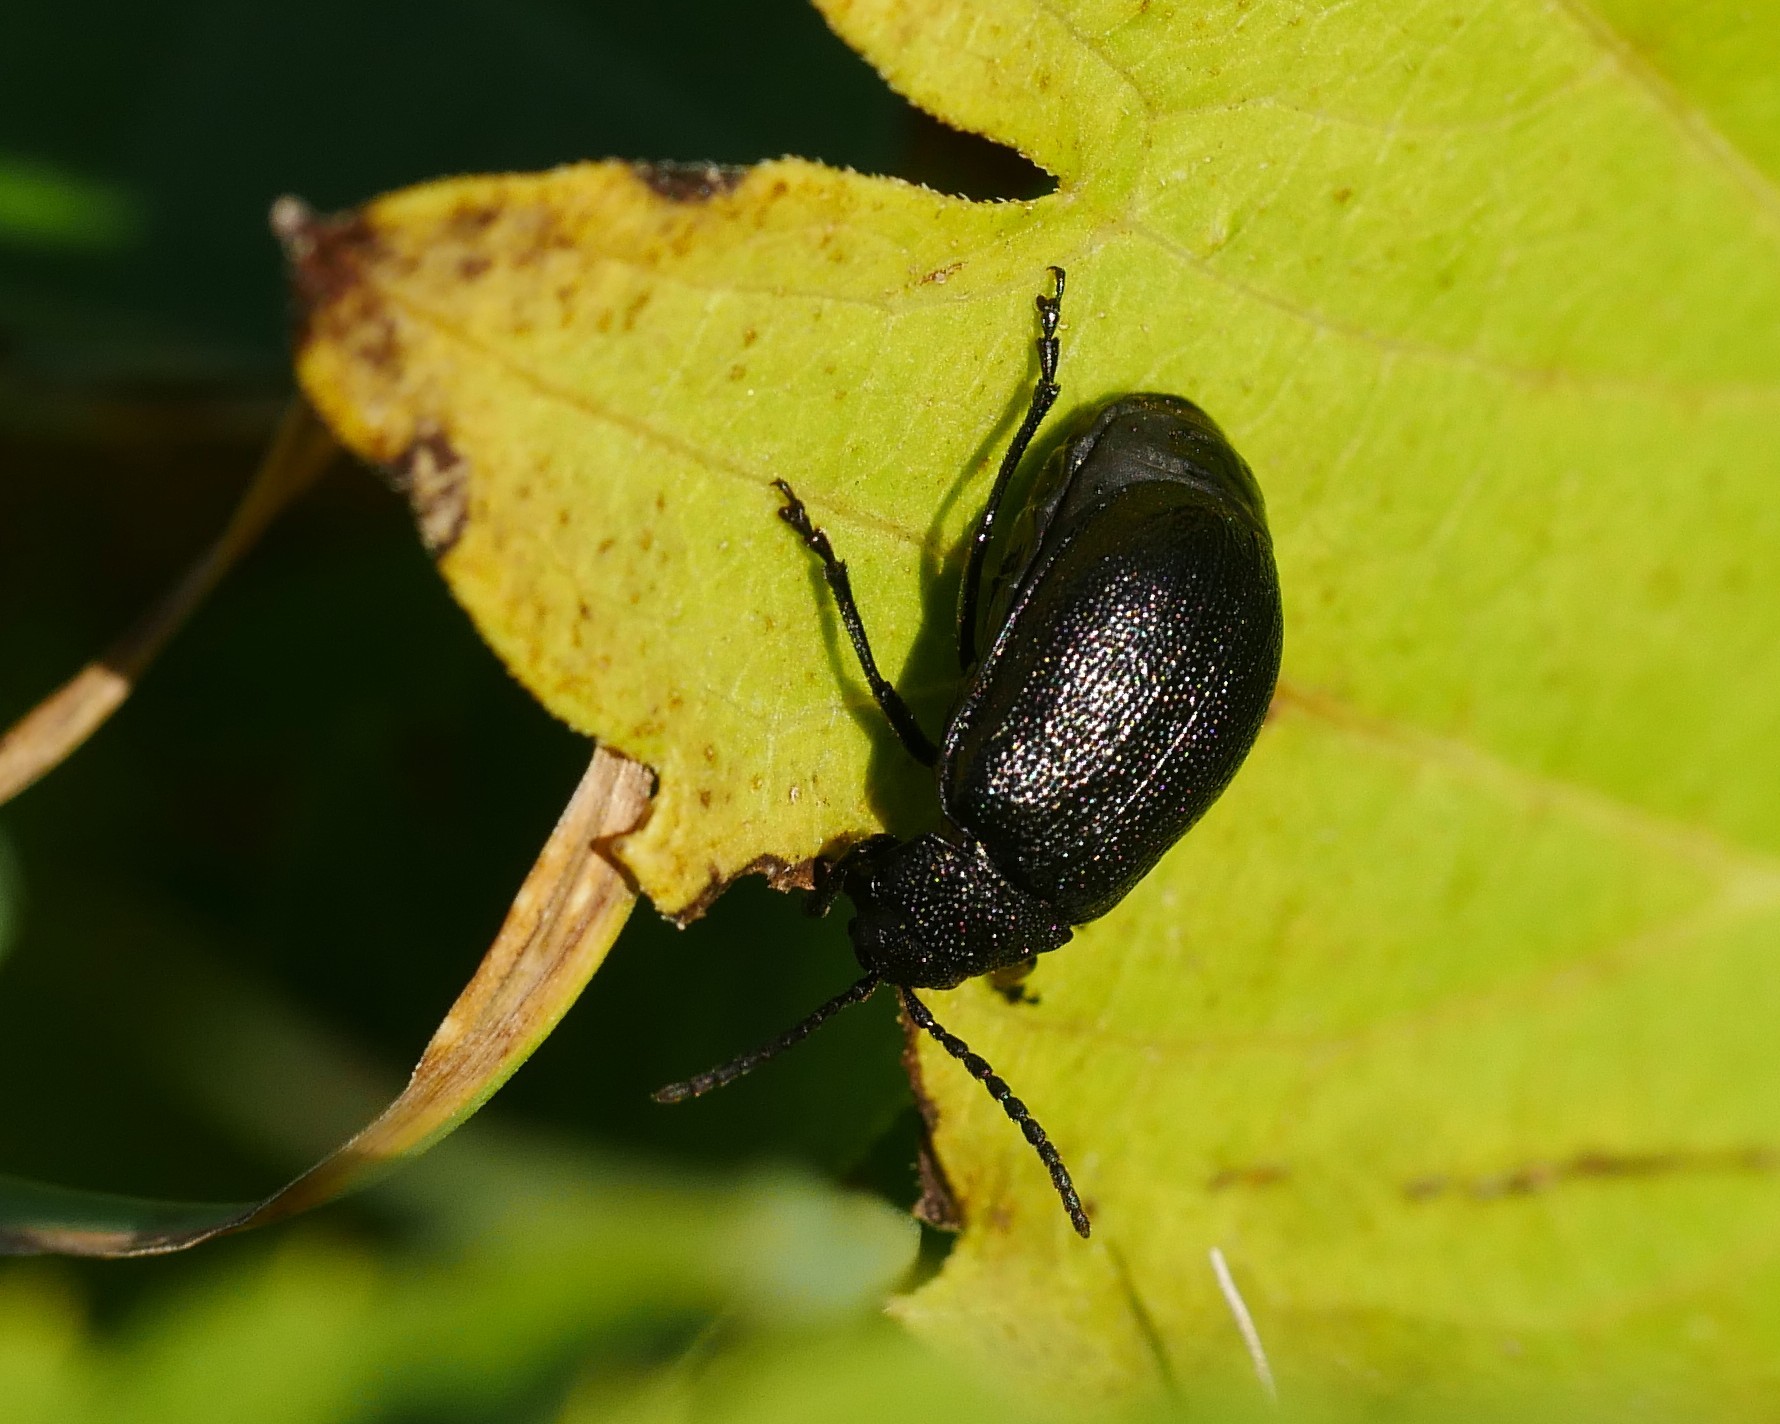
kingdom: Animalia
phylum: Arthropoda
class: Insecta
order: Coleoptera
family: Chrysomelidae
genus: Galeruca
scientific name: Galeruca tanaceti
